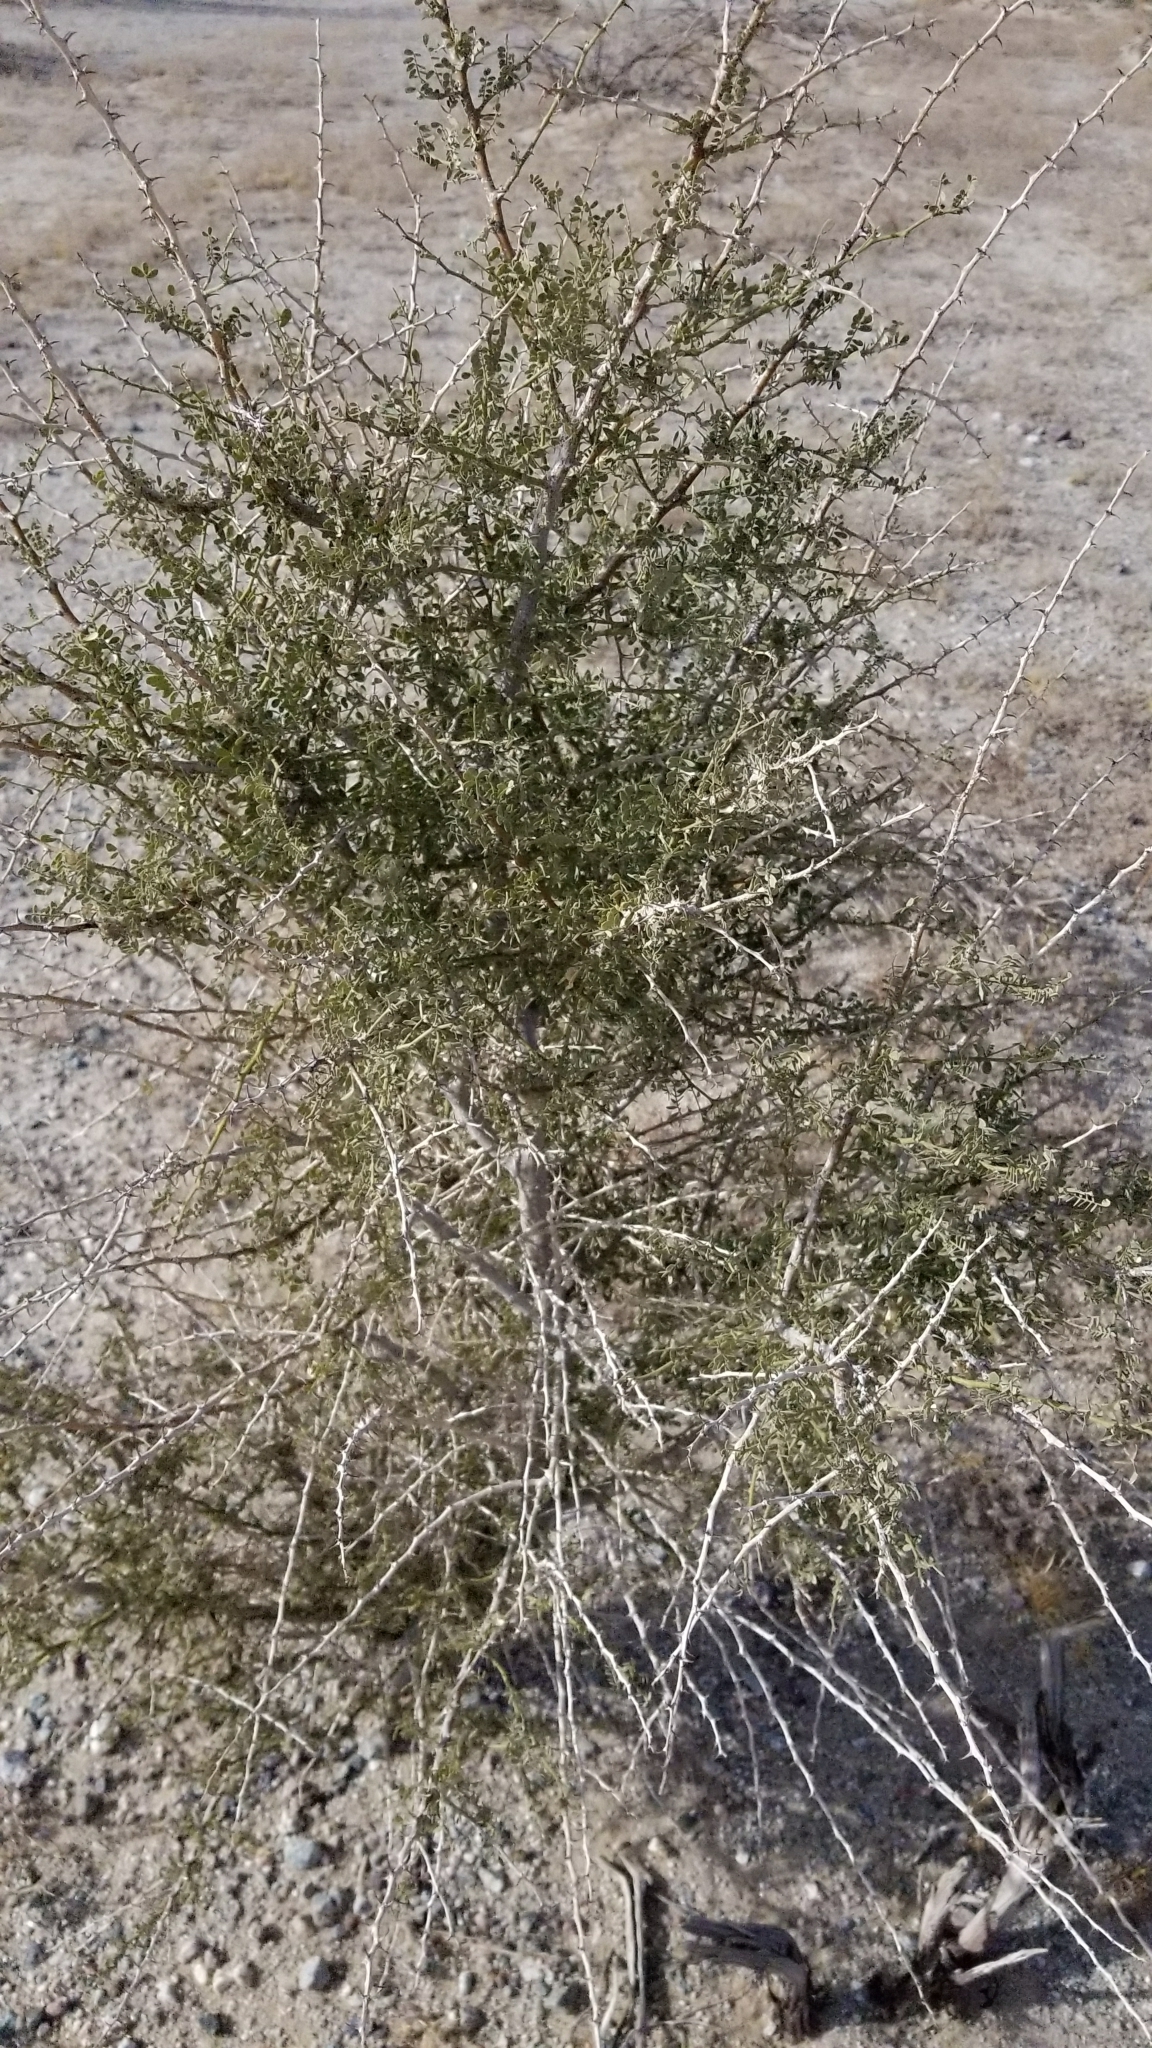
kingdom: Plantae
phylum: Tracheophyta
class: Magnoliopsida
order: Fabales
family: Fabaceae
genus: Olneya
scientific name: Olneya tesota
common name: Desert ironwood
